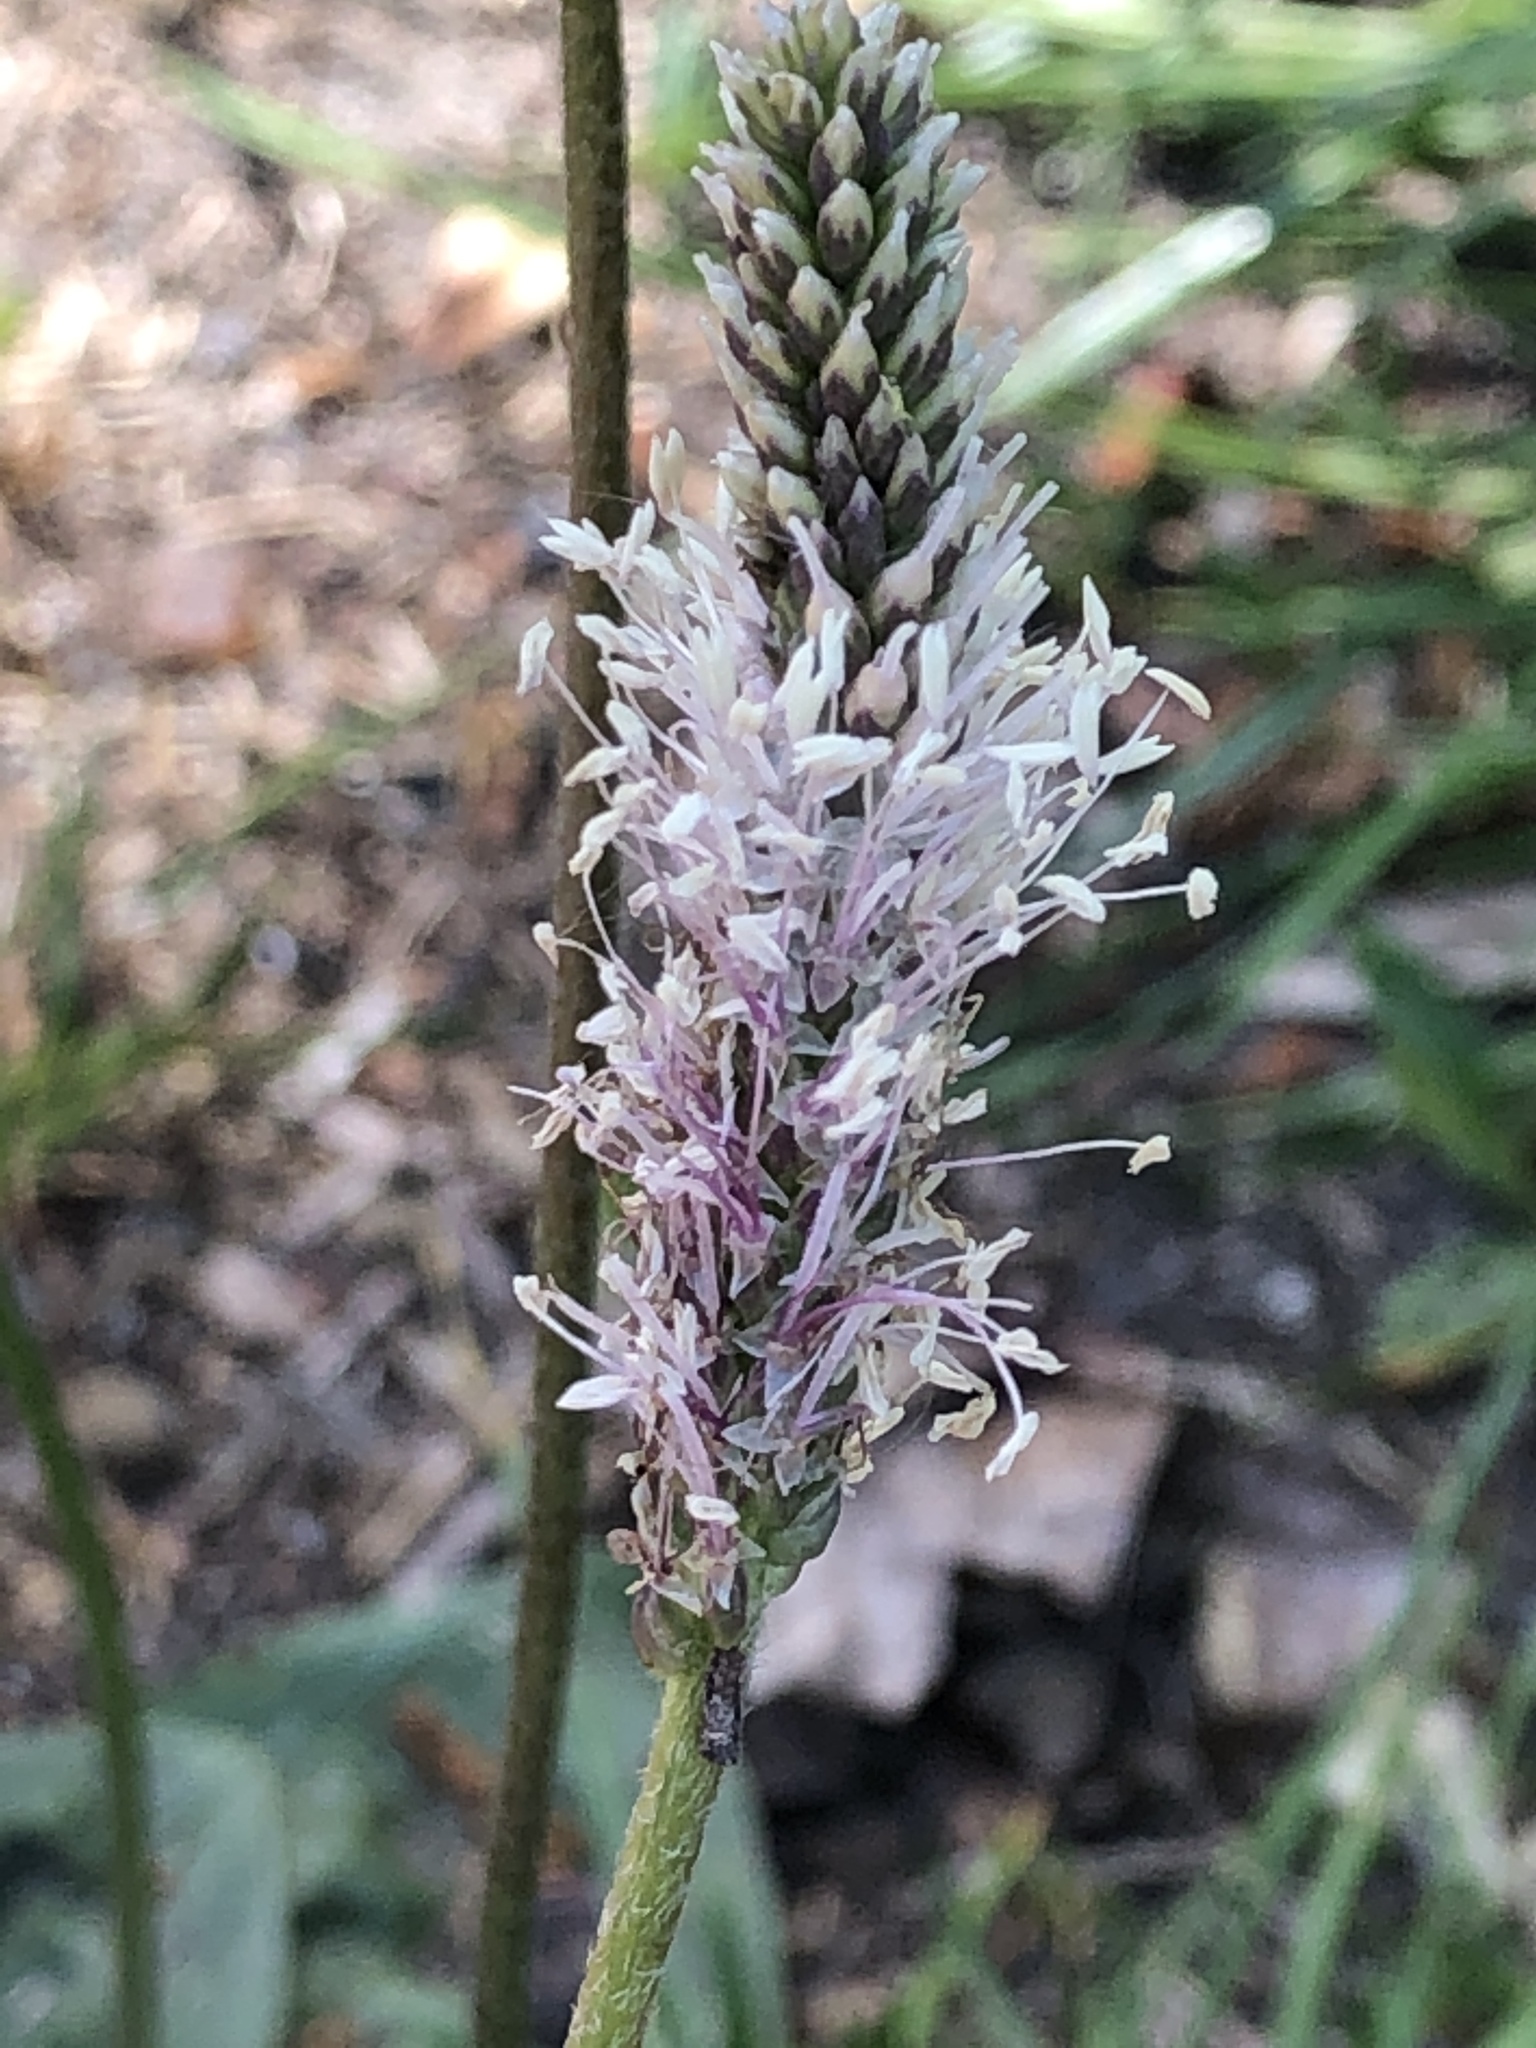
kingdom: Plantae
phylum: Tracheophyta
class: Magnoliopsida
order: Lamiales
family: Plantaginaceae
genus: Plantago
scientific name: Plantago media
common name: Hoary plantain
